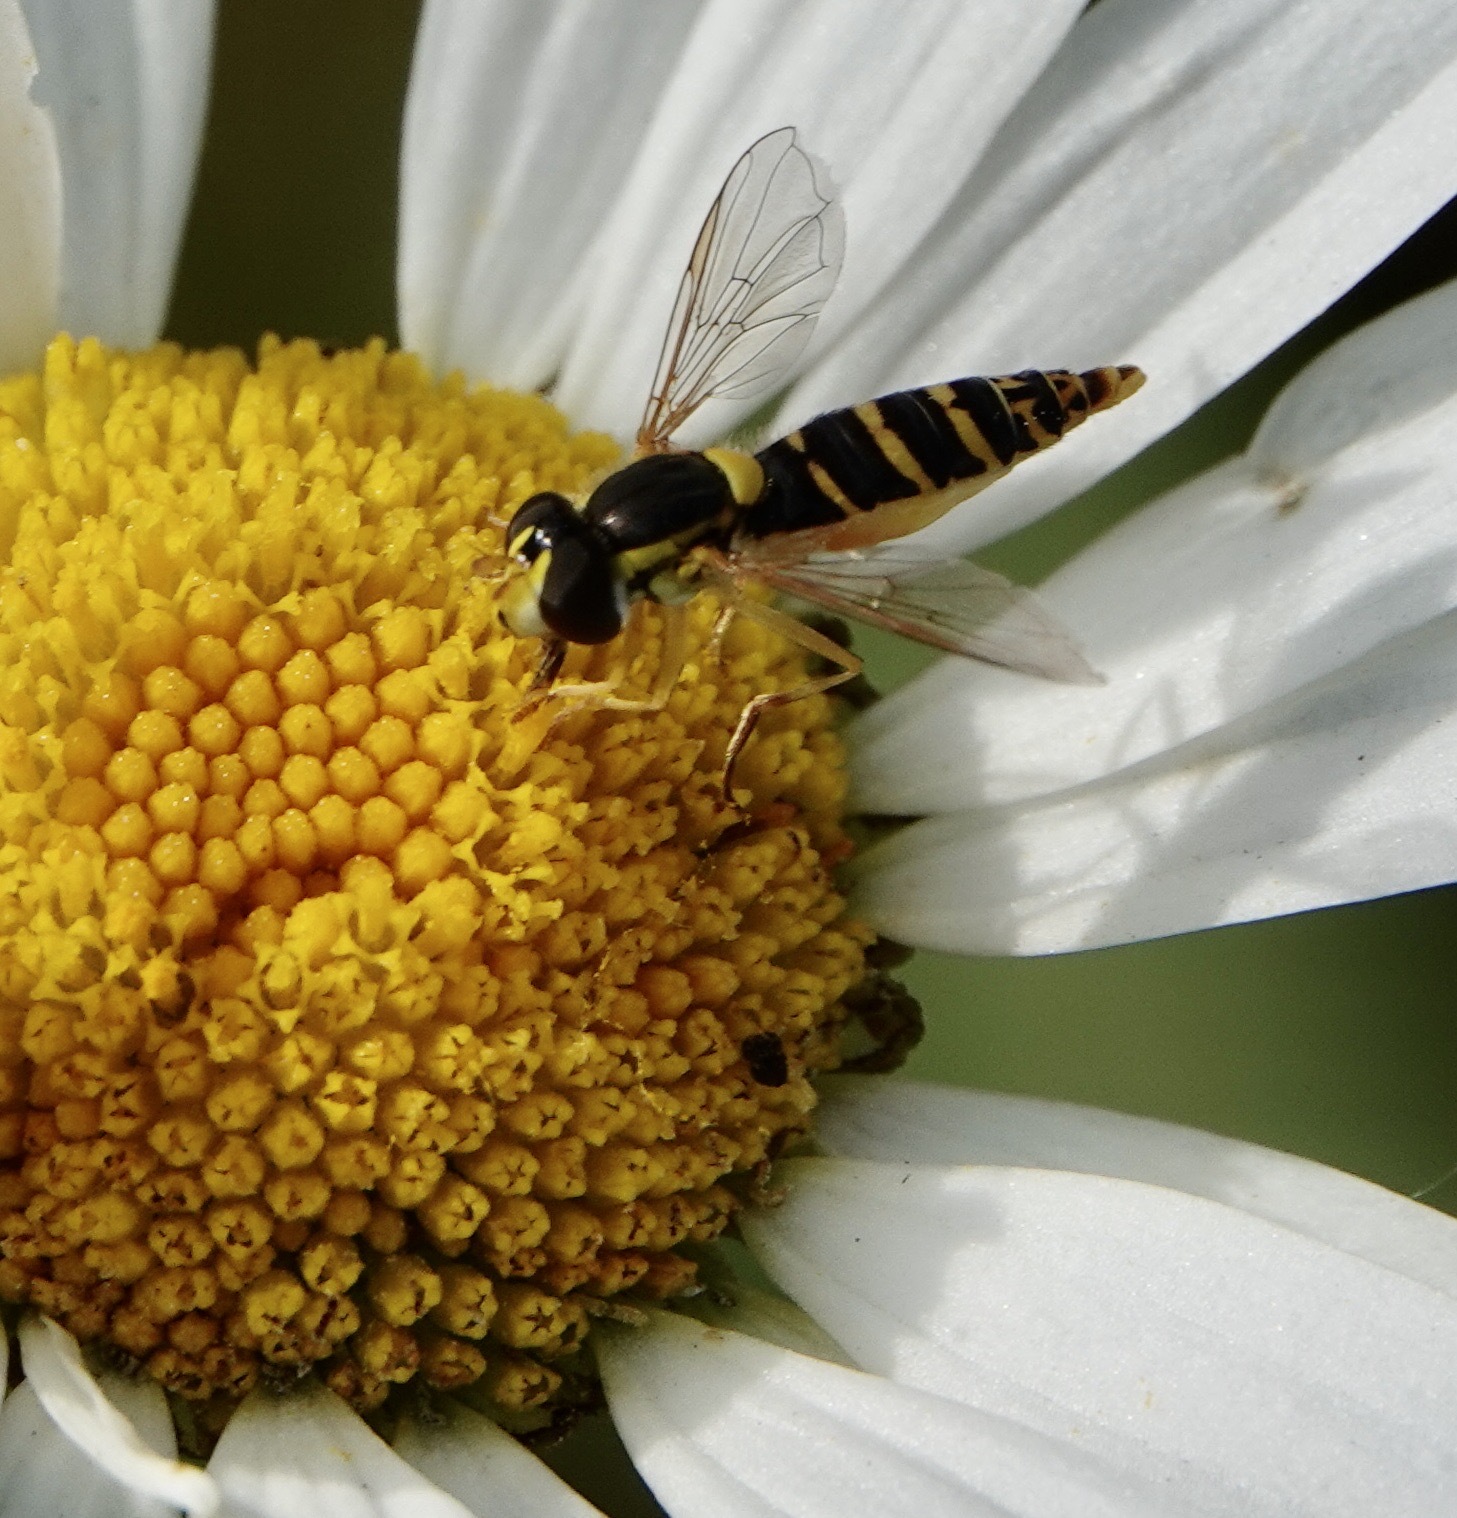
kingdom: Animalia
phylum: Arthropoda
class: Insecta
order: Diptera
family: Syrphidae
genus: Sphaerophoria
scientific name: Sphaerophoria
